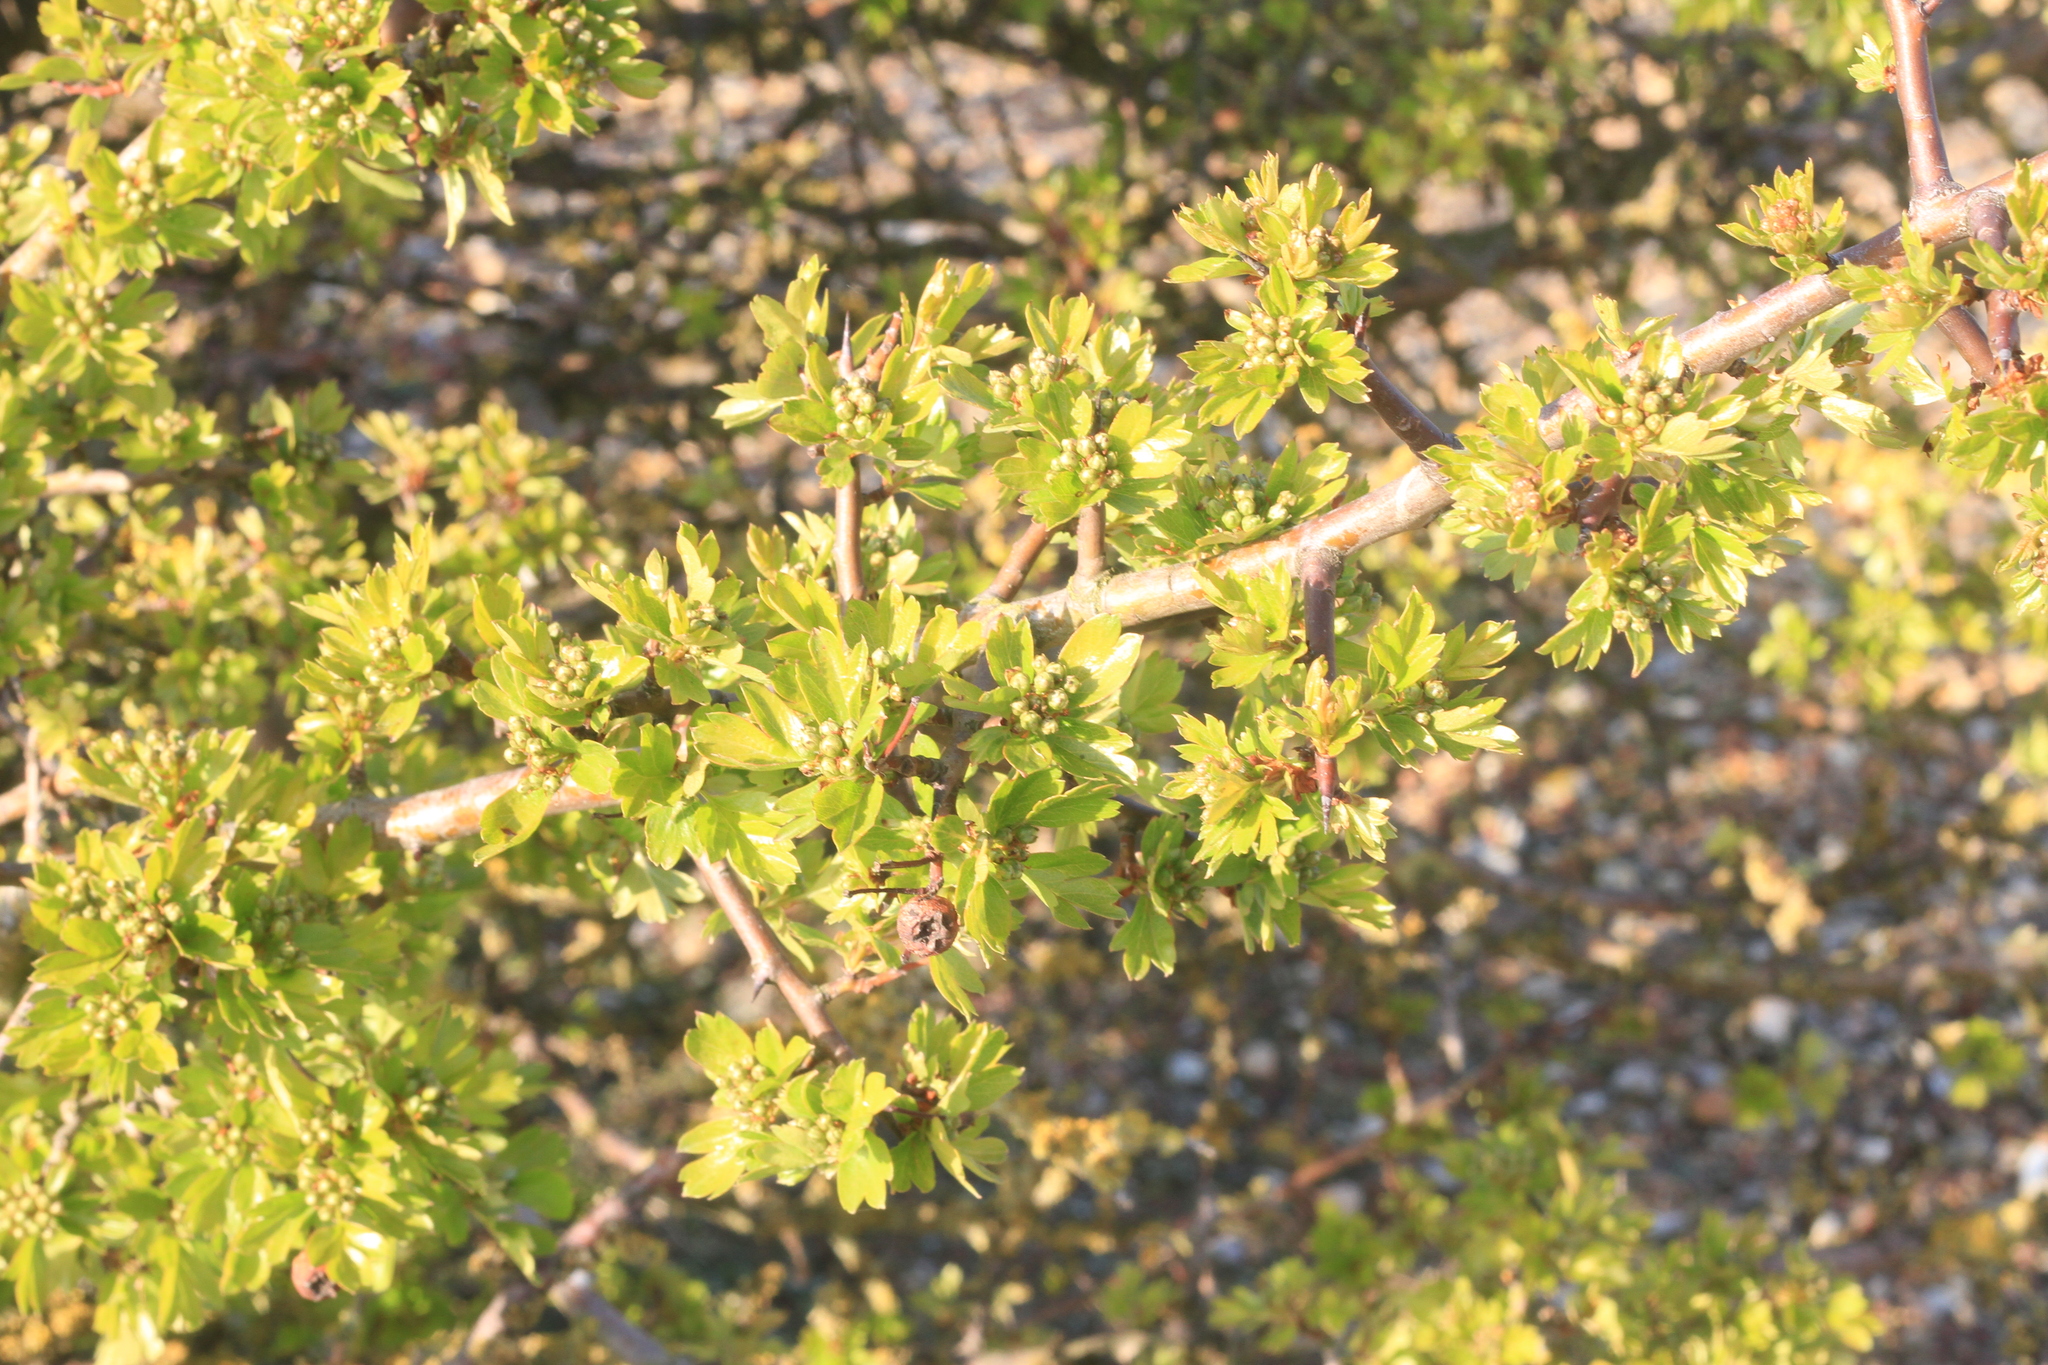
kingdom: Plantae
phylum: Tracheophyta
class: Magnoliopsida
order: Rosales
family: Rosaceae
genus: Crataegus
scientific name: Crataegus monogyna
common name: Hawthorn
